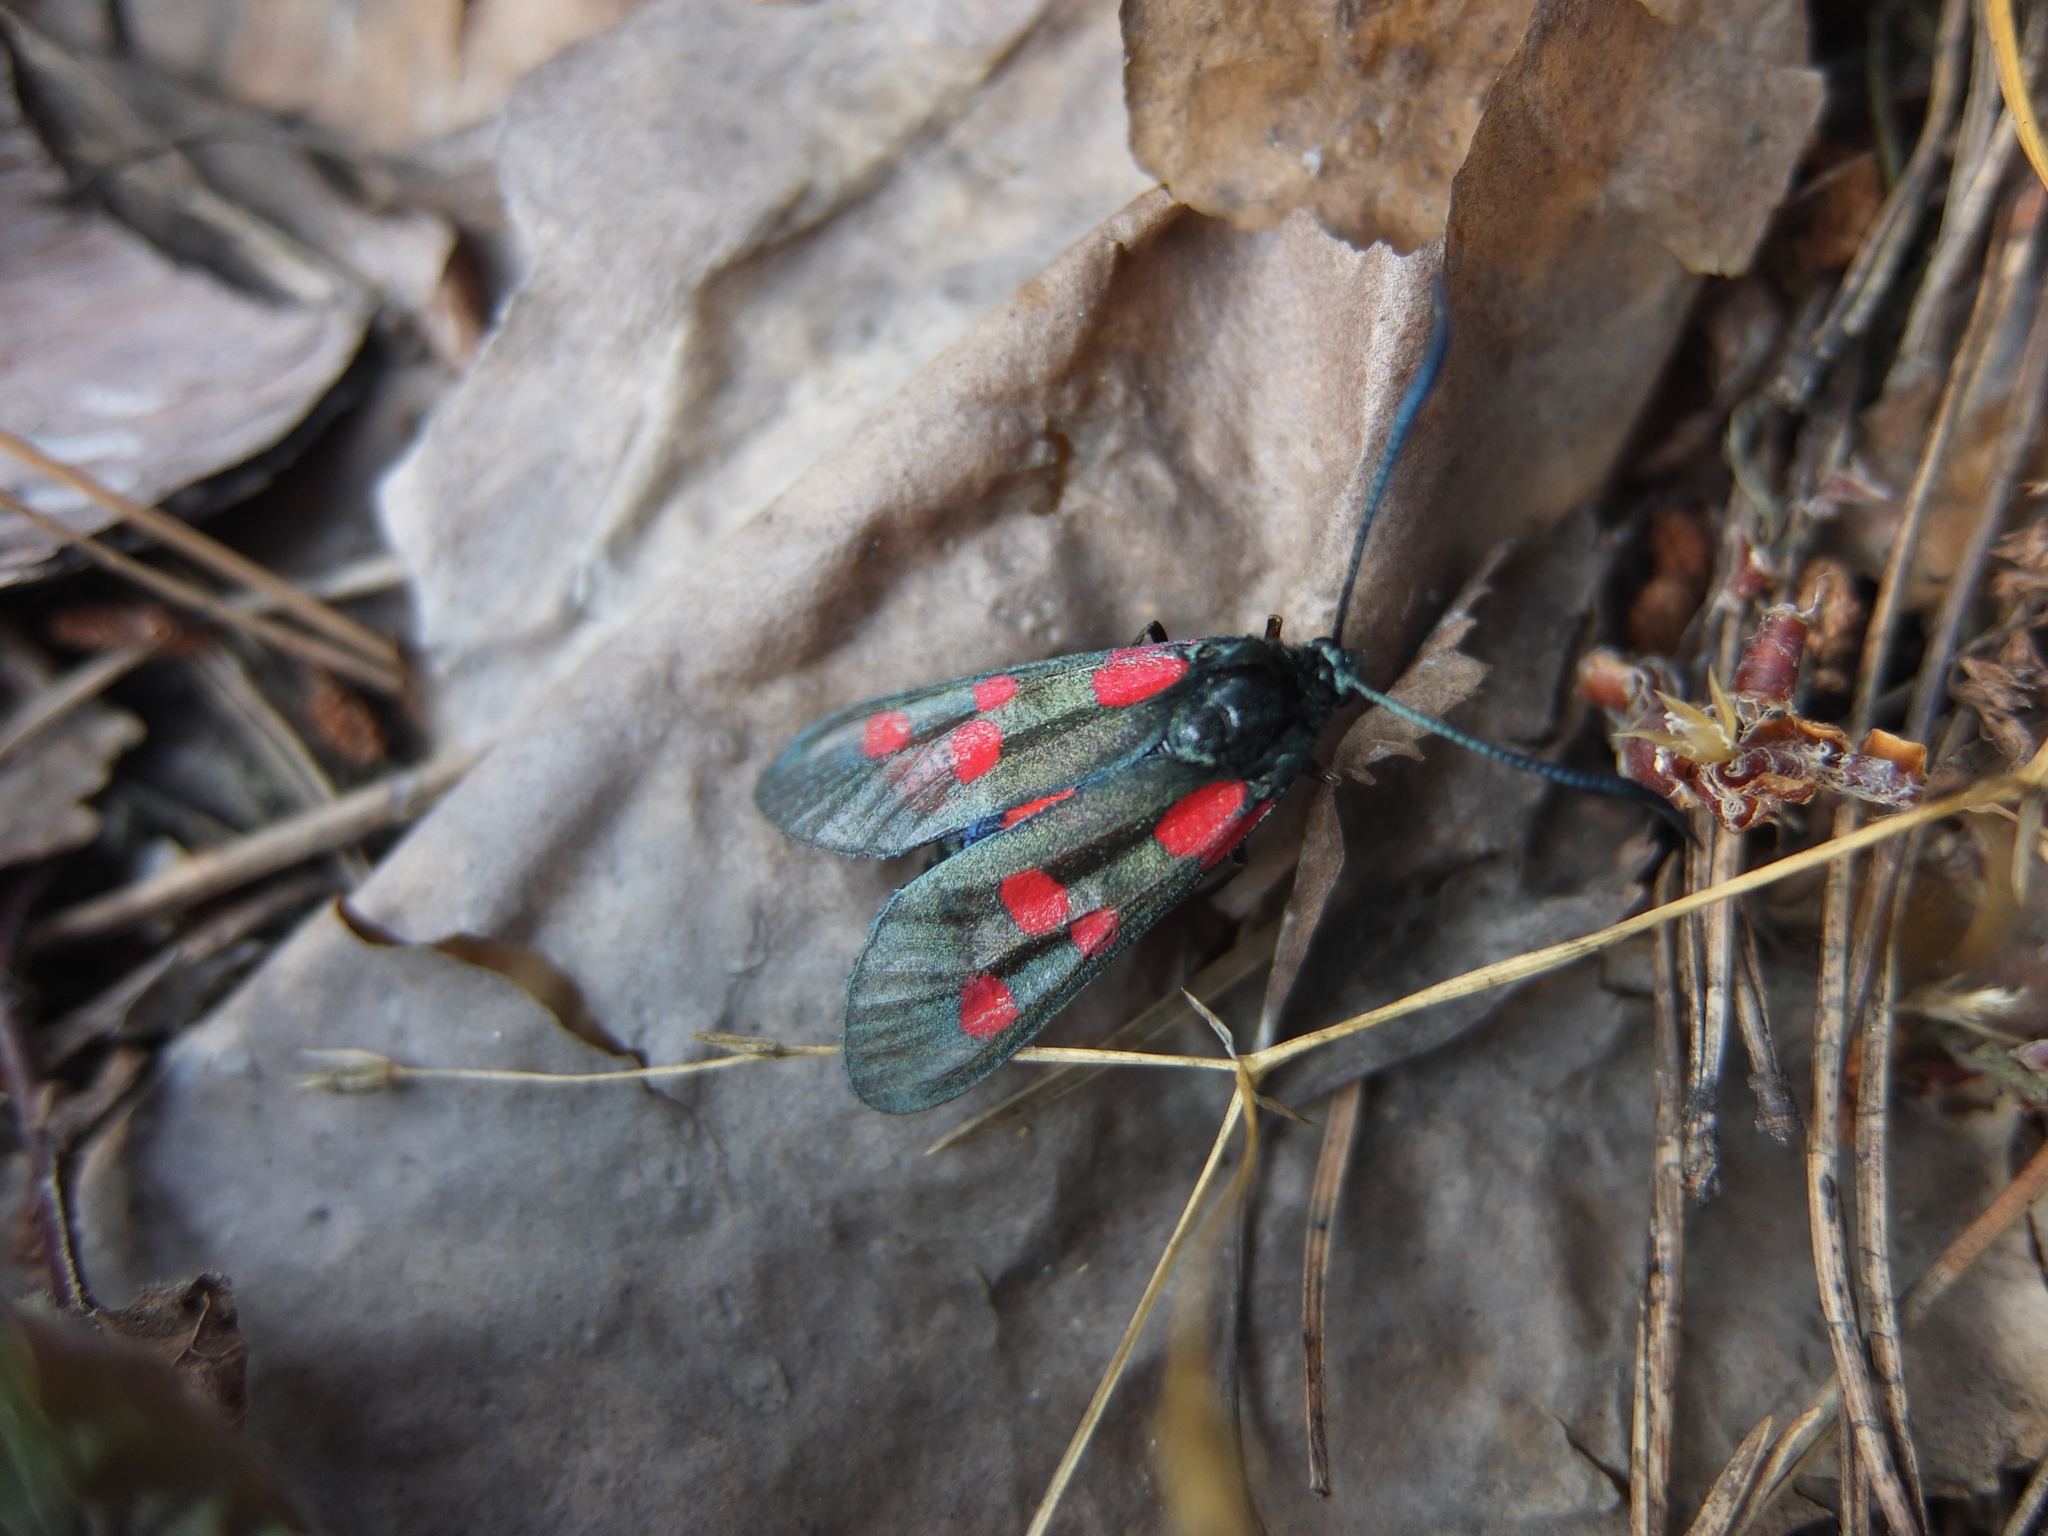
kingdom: Animalia
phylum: Arthropoda
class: Insecta
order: Lepidoptera
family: Zygaenidae
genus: Zygaena
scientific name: Zygaena lonicerae
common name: Narrow-bordered five-spot burnet
